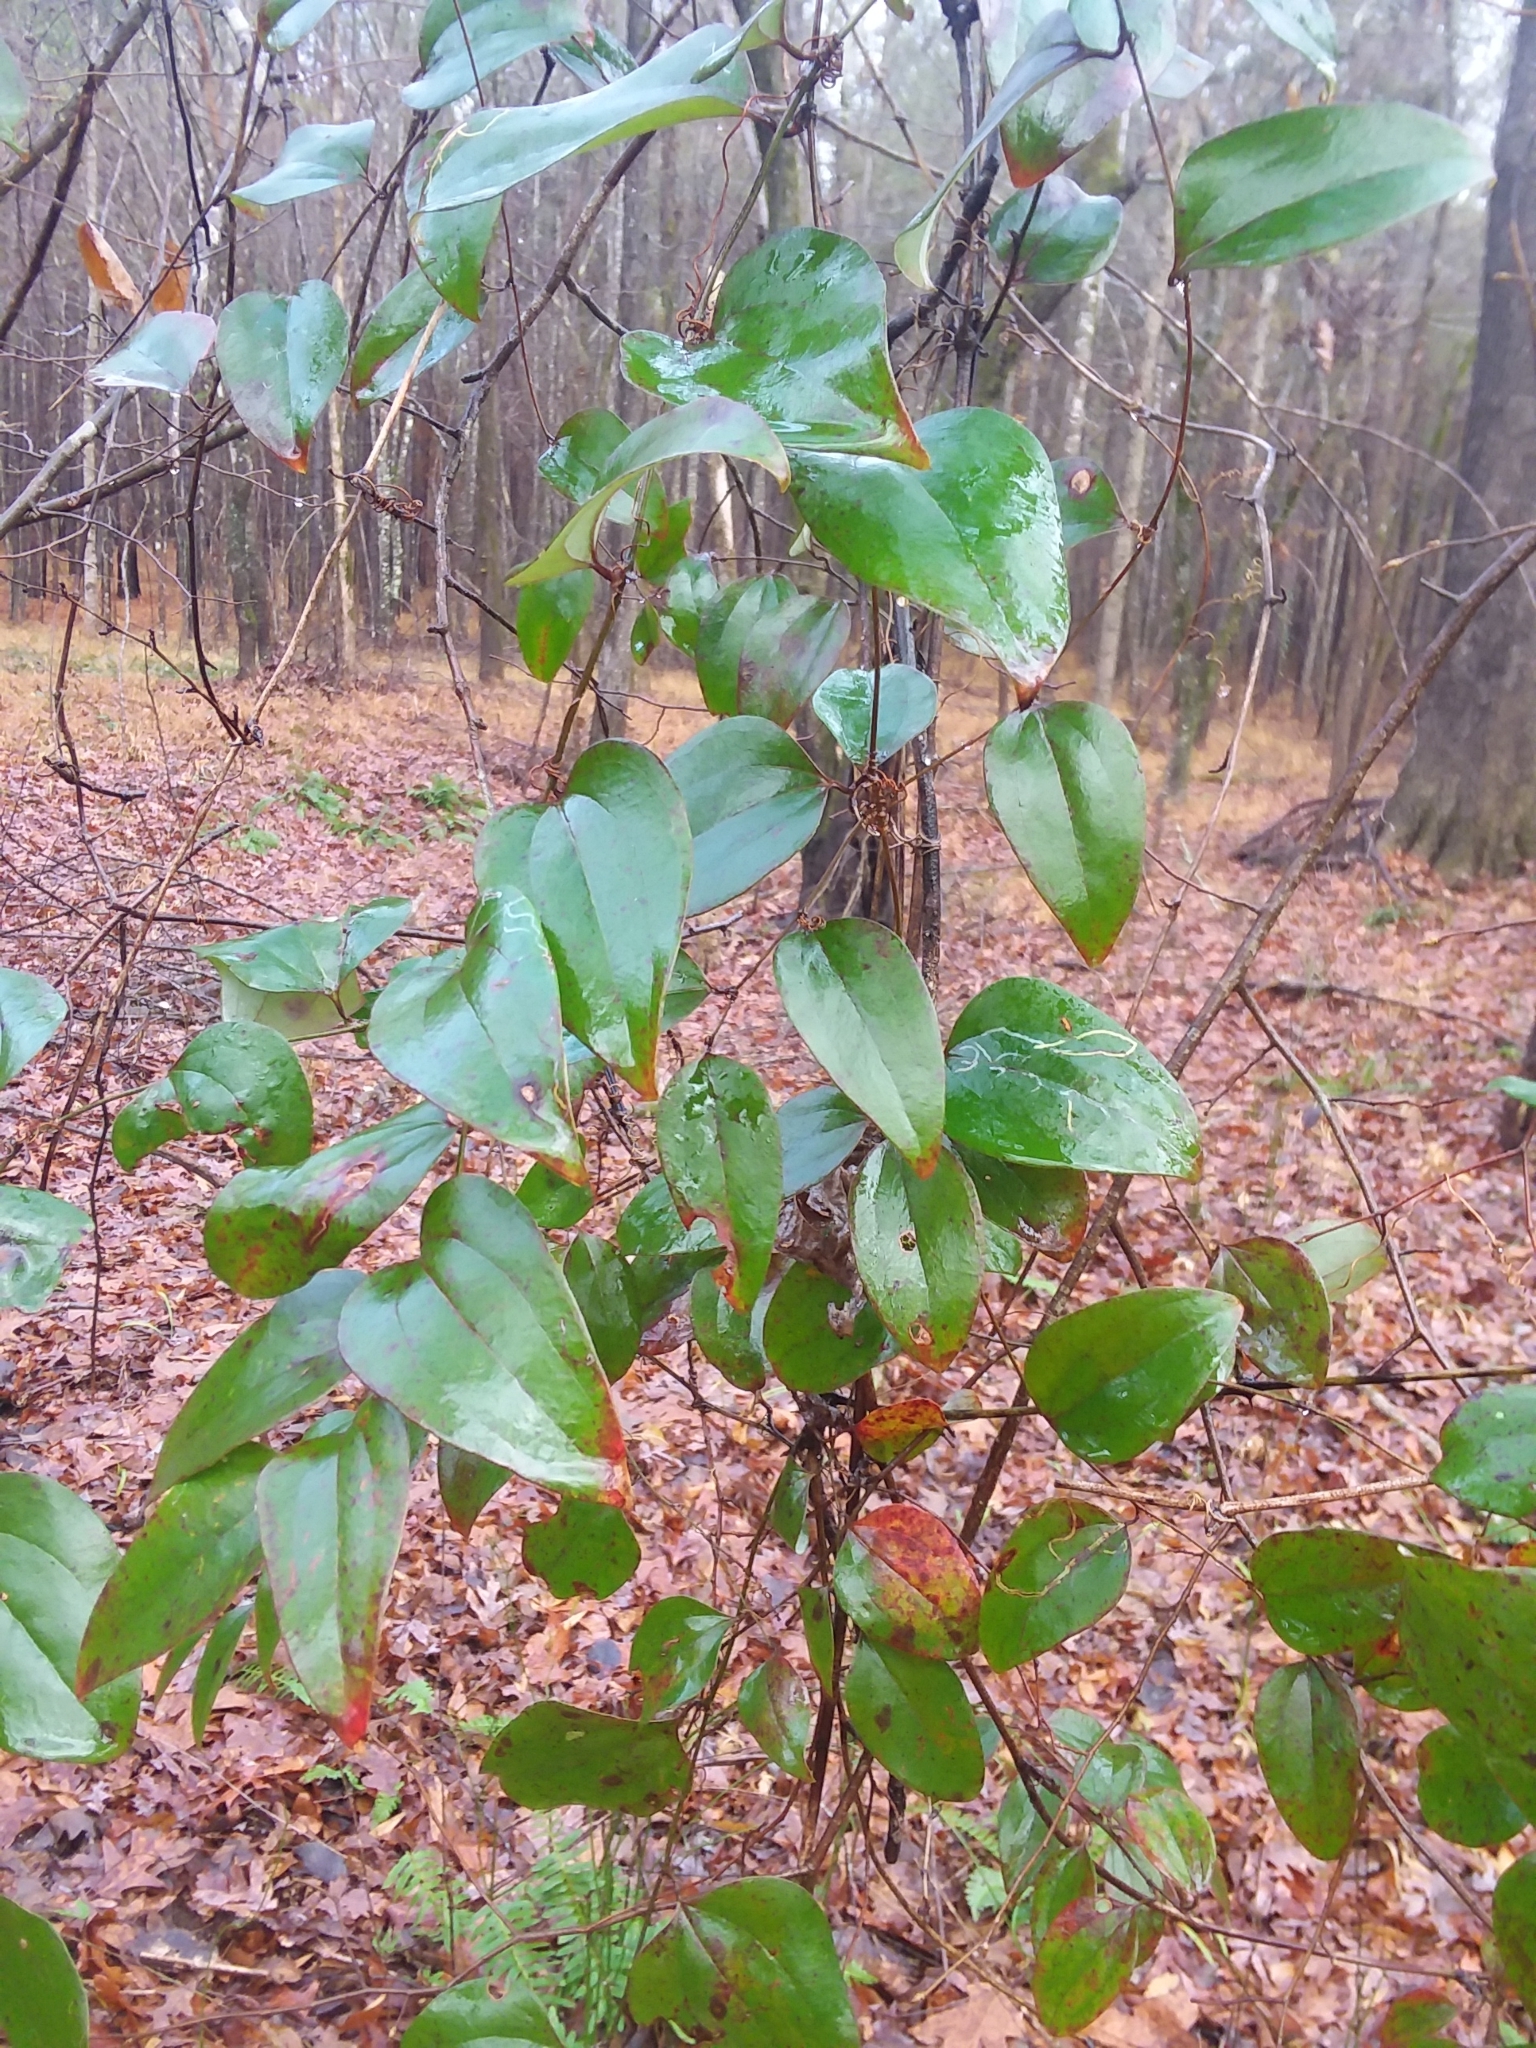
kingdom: Plantae
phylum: Tracheophyta
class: Liliopsida
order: Liliales
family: Smilacaceae
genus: Smilax
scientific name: Smilax glauca
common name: Cat greenbrier
